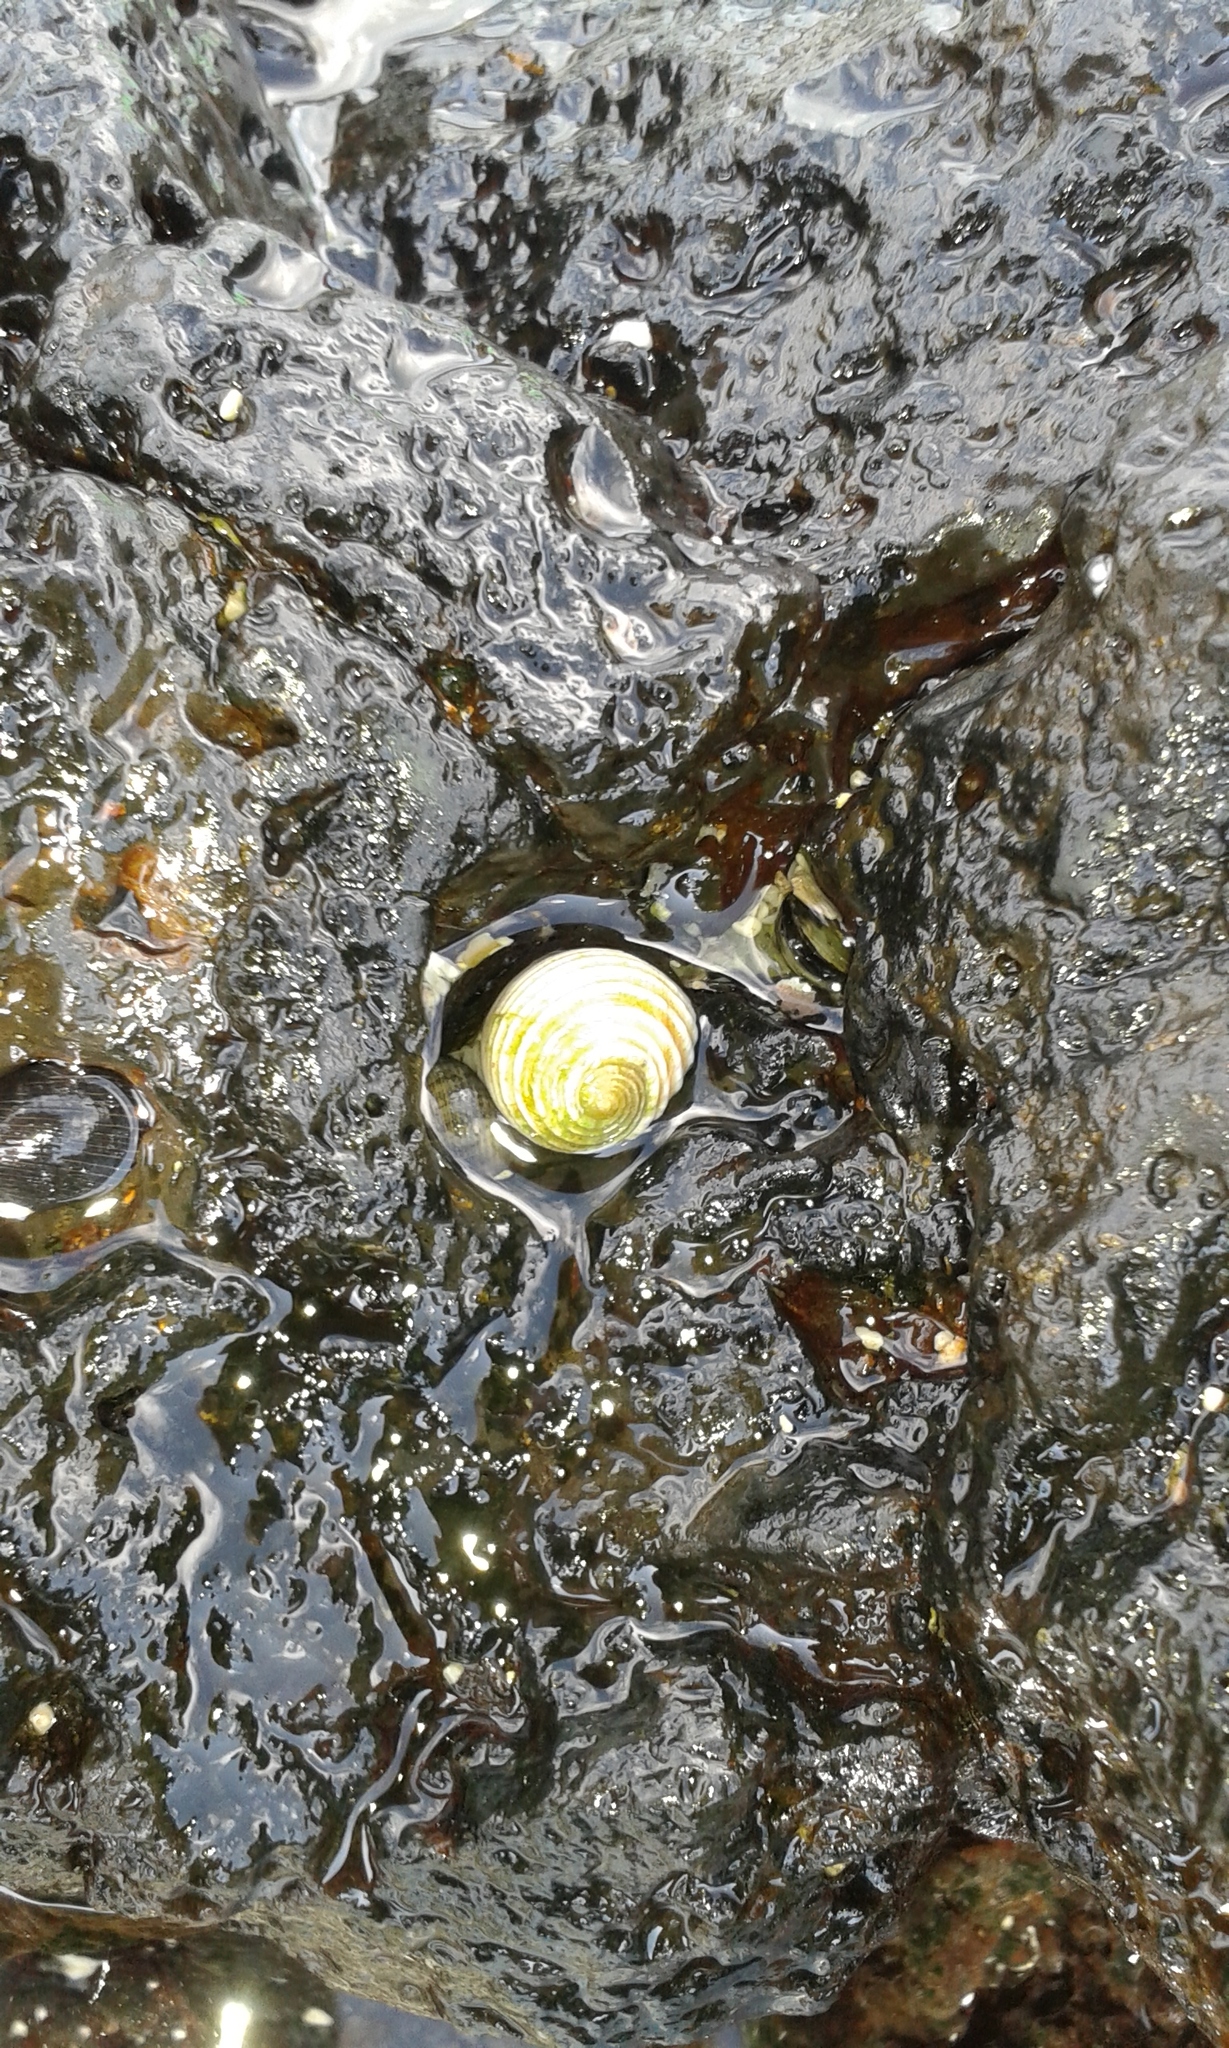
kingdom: Animalia
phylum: Mollusca
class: Gastropoda
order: Cycloneritida
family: Neritidae
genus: Nerita
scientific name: Nerita plicata
